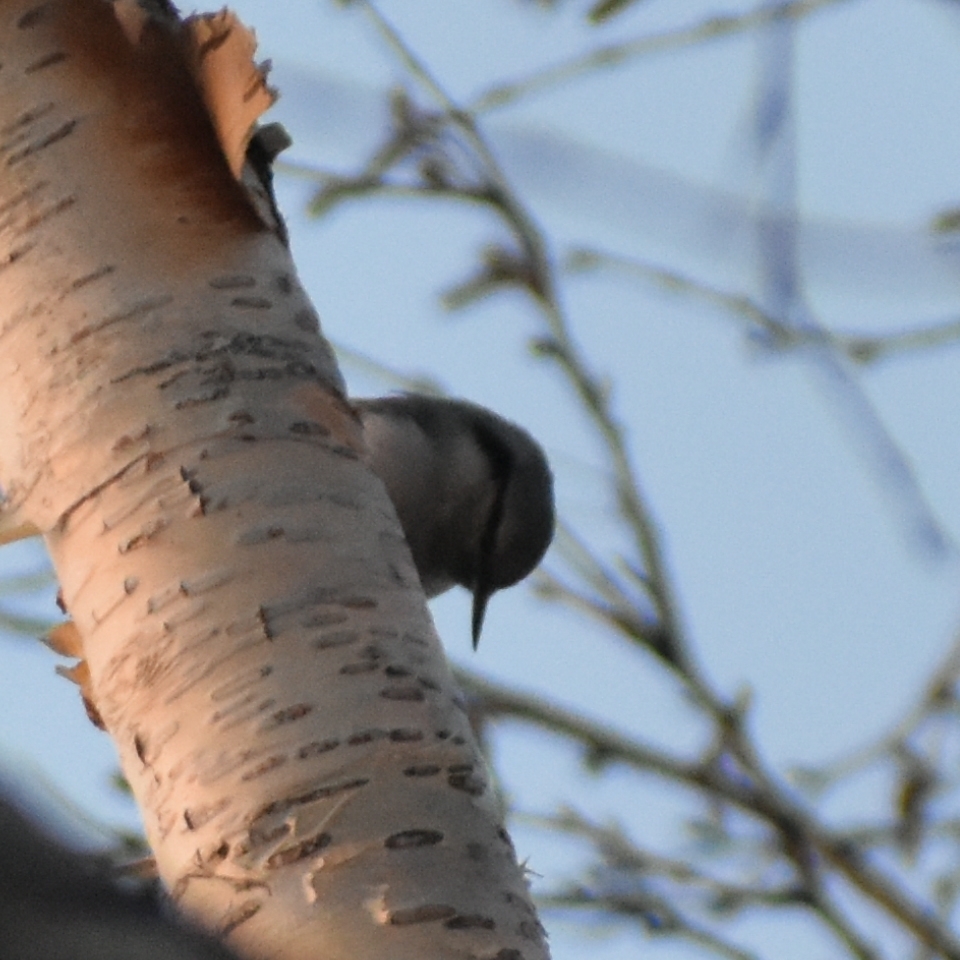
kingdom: Animalia
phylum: Chordata
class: Aves
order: Passeriformes
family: Sittidae
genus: Sitta
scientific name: Sitta europaea
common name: Eurasian nuthatch
